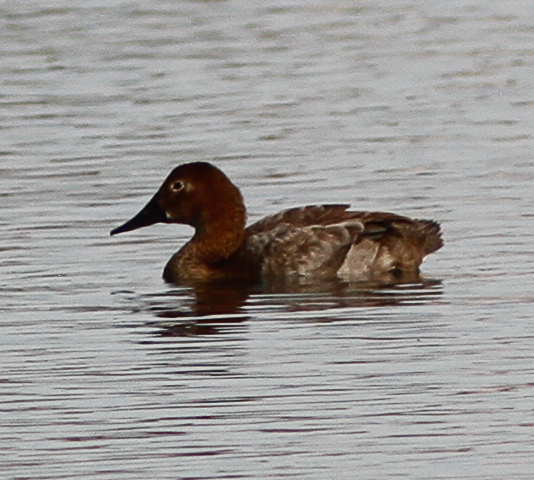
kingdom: Animalia
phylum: Chordata
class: Aves
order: Anseriformes
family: Anatidae
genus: Aythya
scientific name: Aythya valisineria
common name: Canvasback
